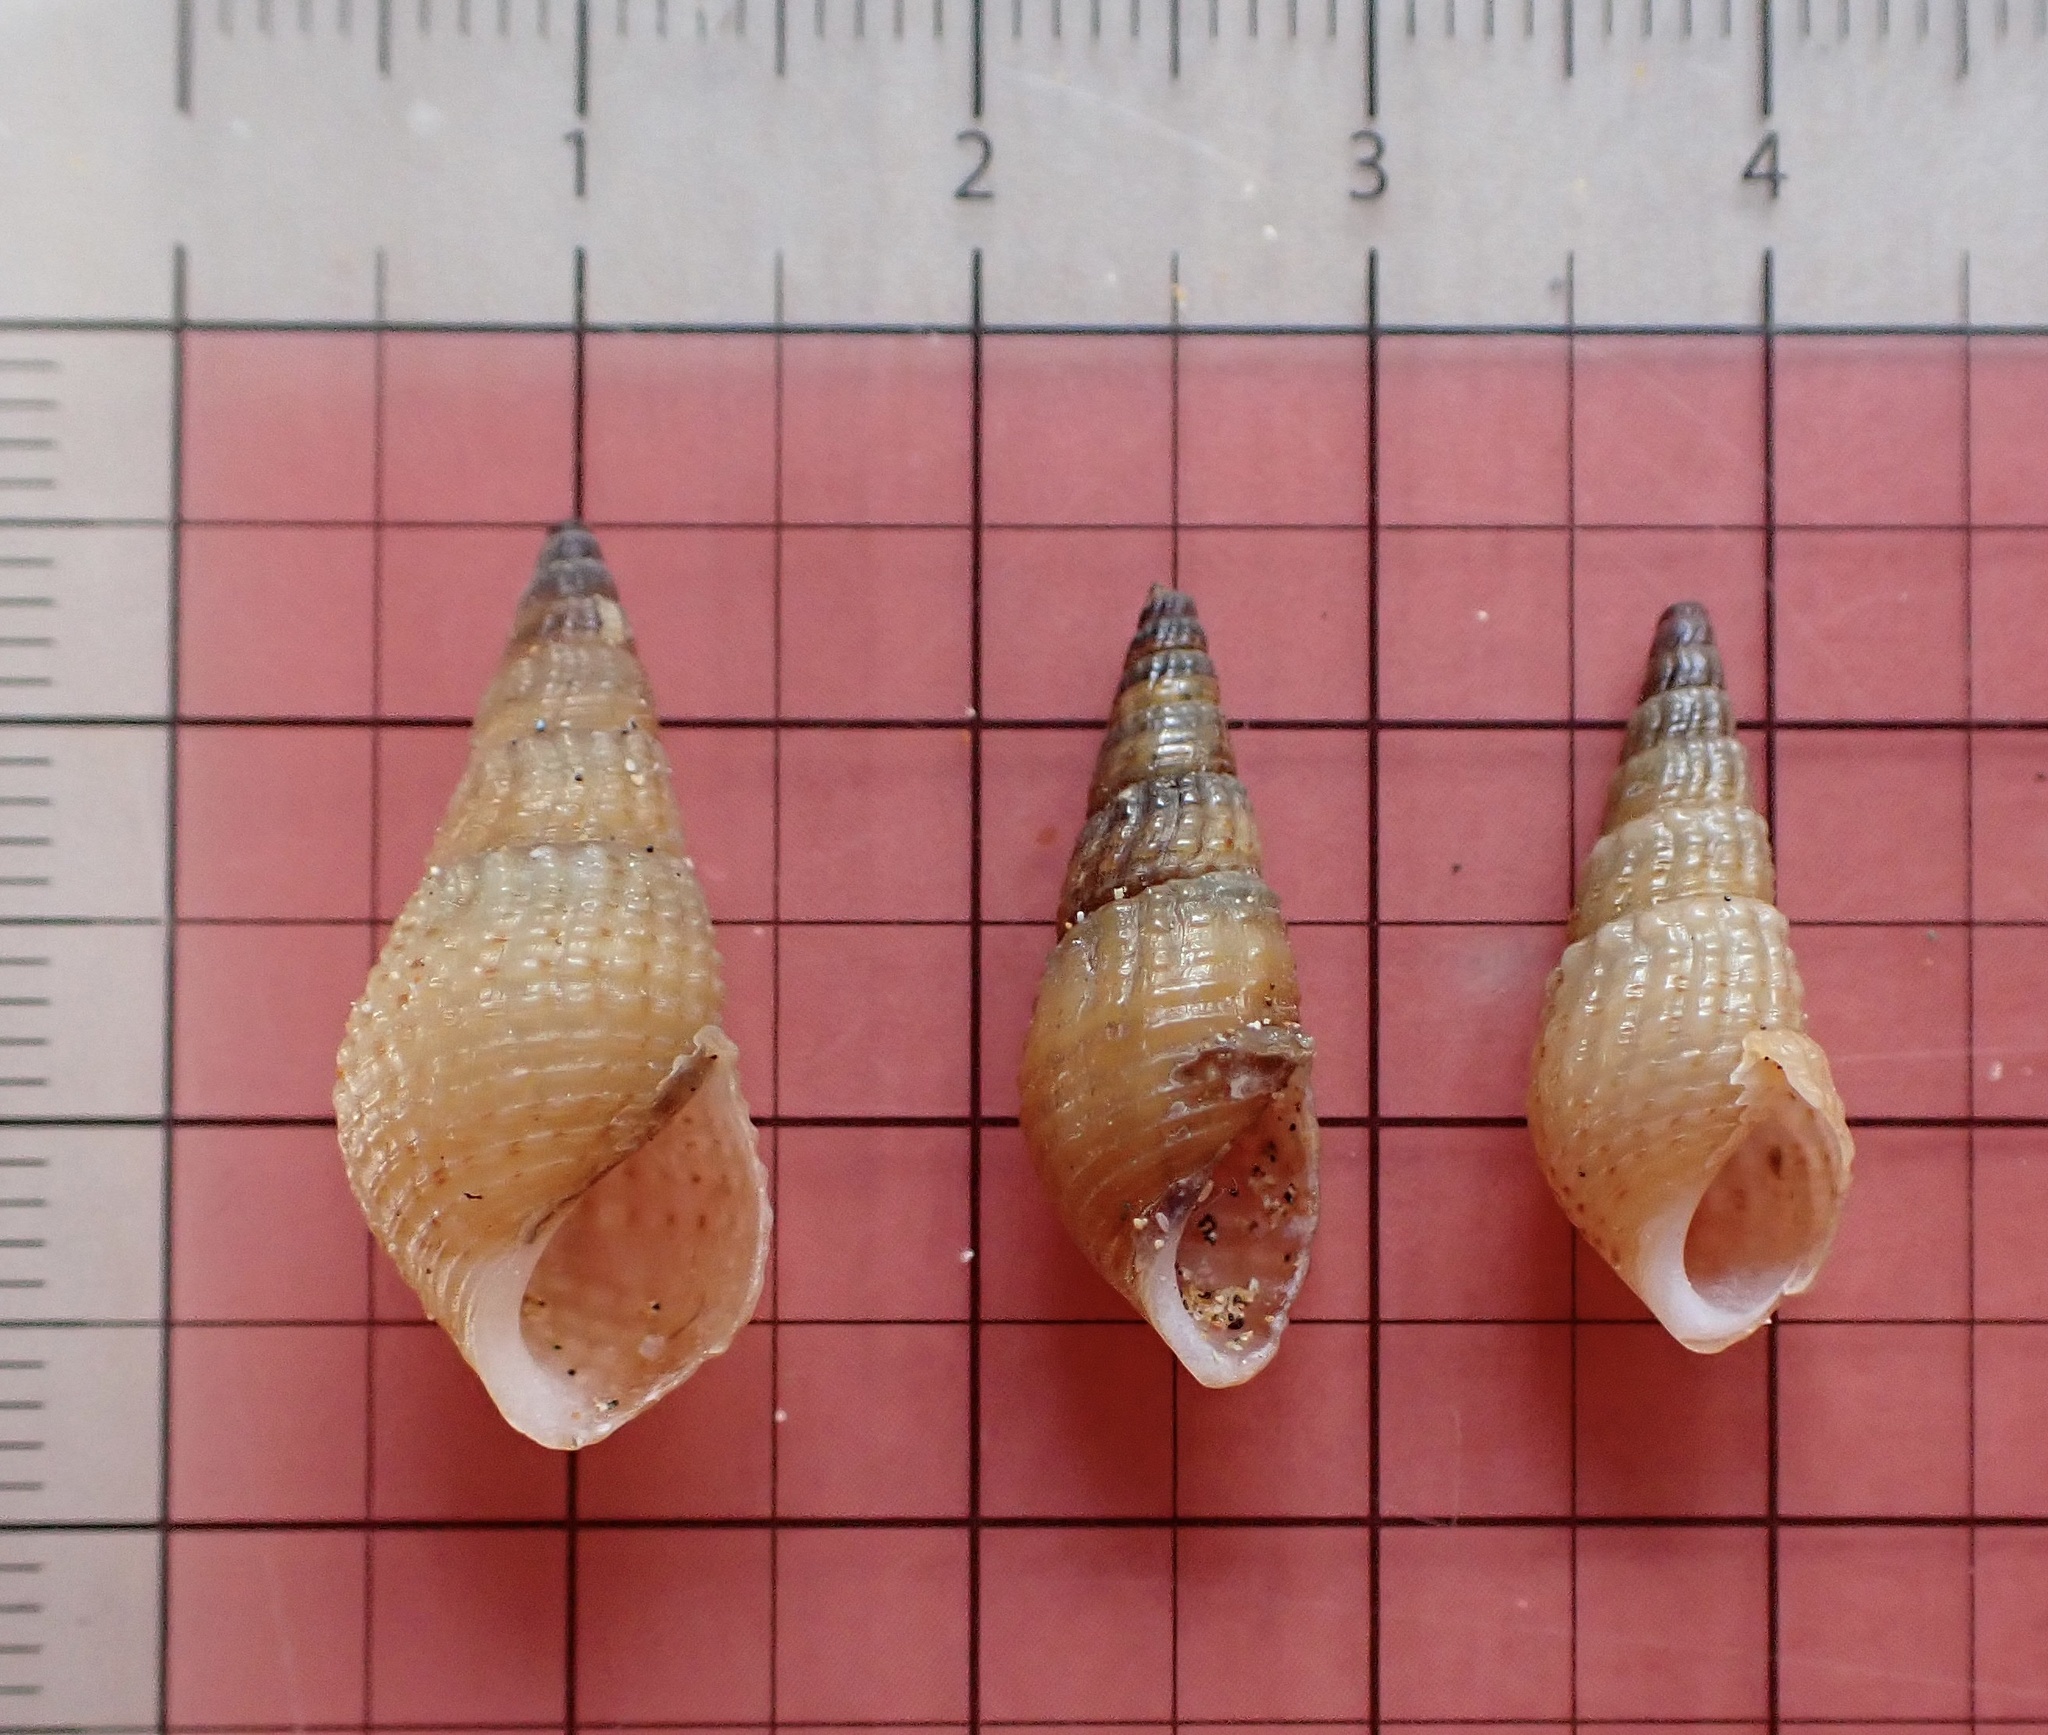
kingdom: Animalia
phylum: Mollusca
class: Gastropoda
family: Thiaridae
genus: Tarebia
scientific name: Tarebia granifera
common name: Quilted melania
